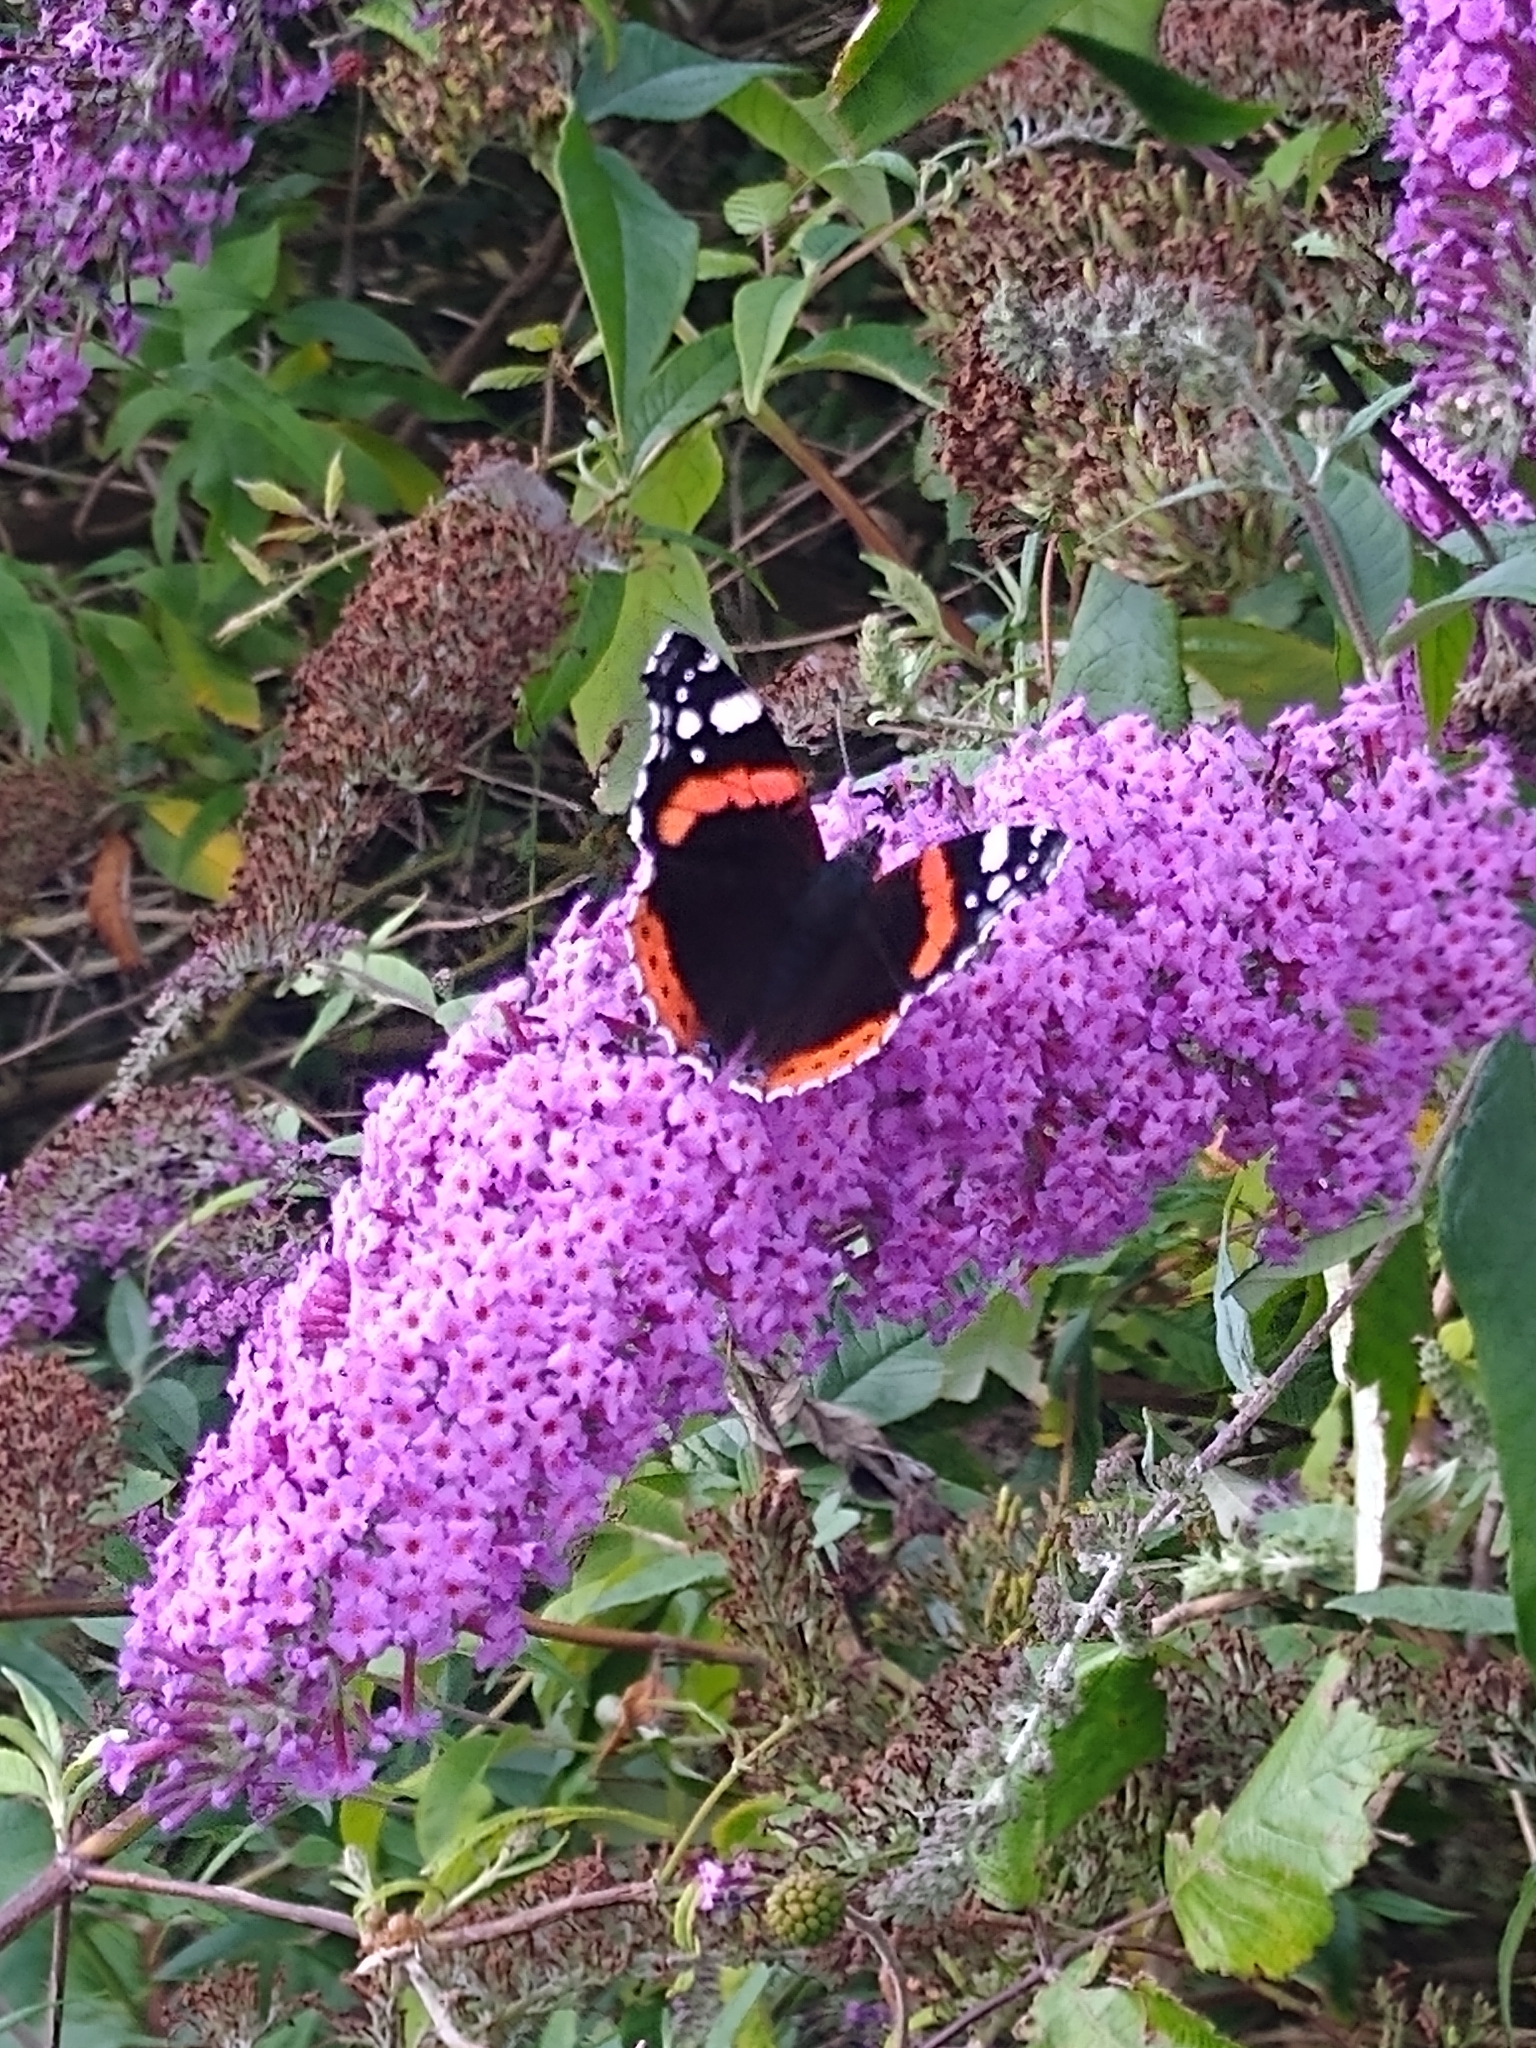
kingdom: Animalia
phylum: Arthropoda
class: Insecta
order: Lepidoptera
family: Nymphalidae
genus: Vanessa
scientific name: Vanessa atalanta
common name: Red admiral
